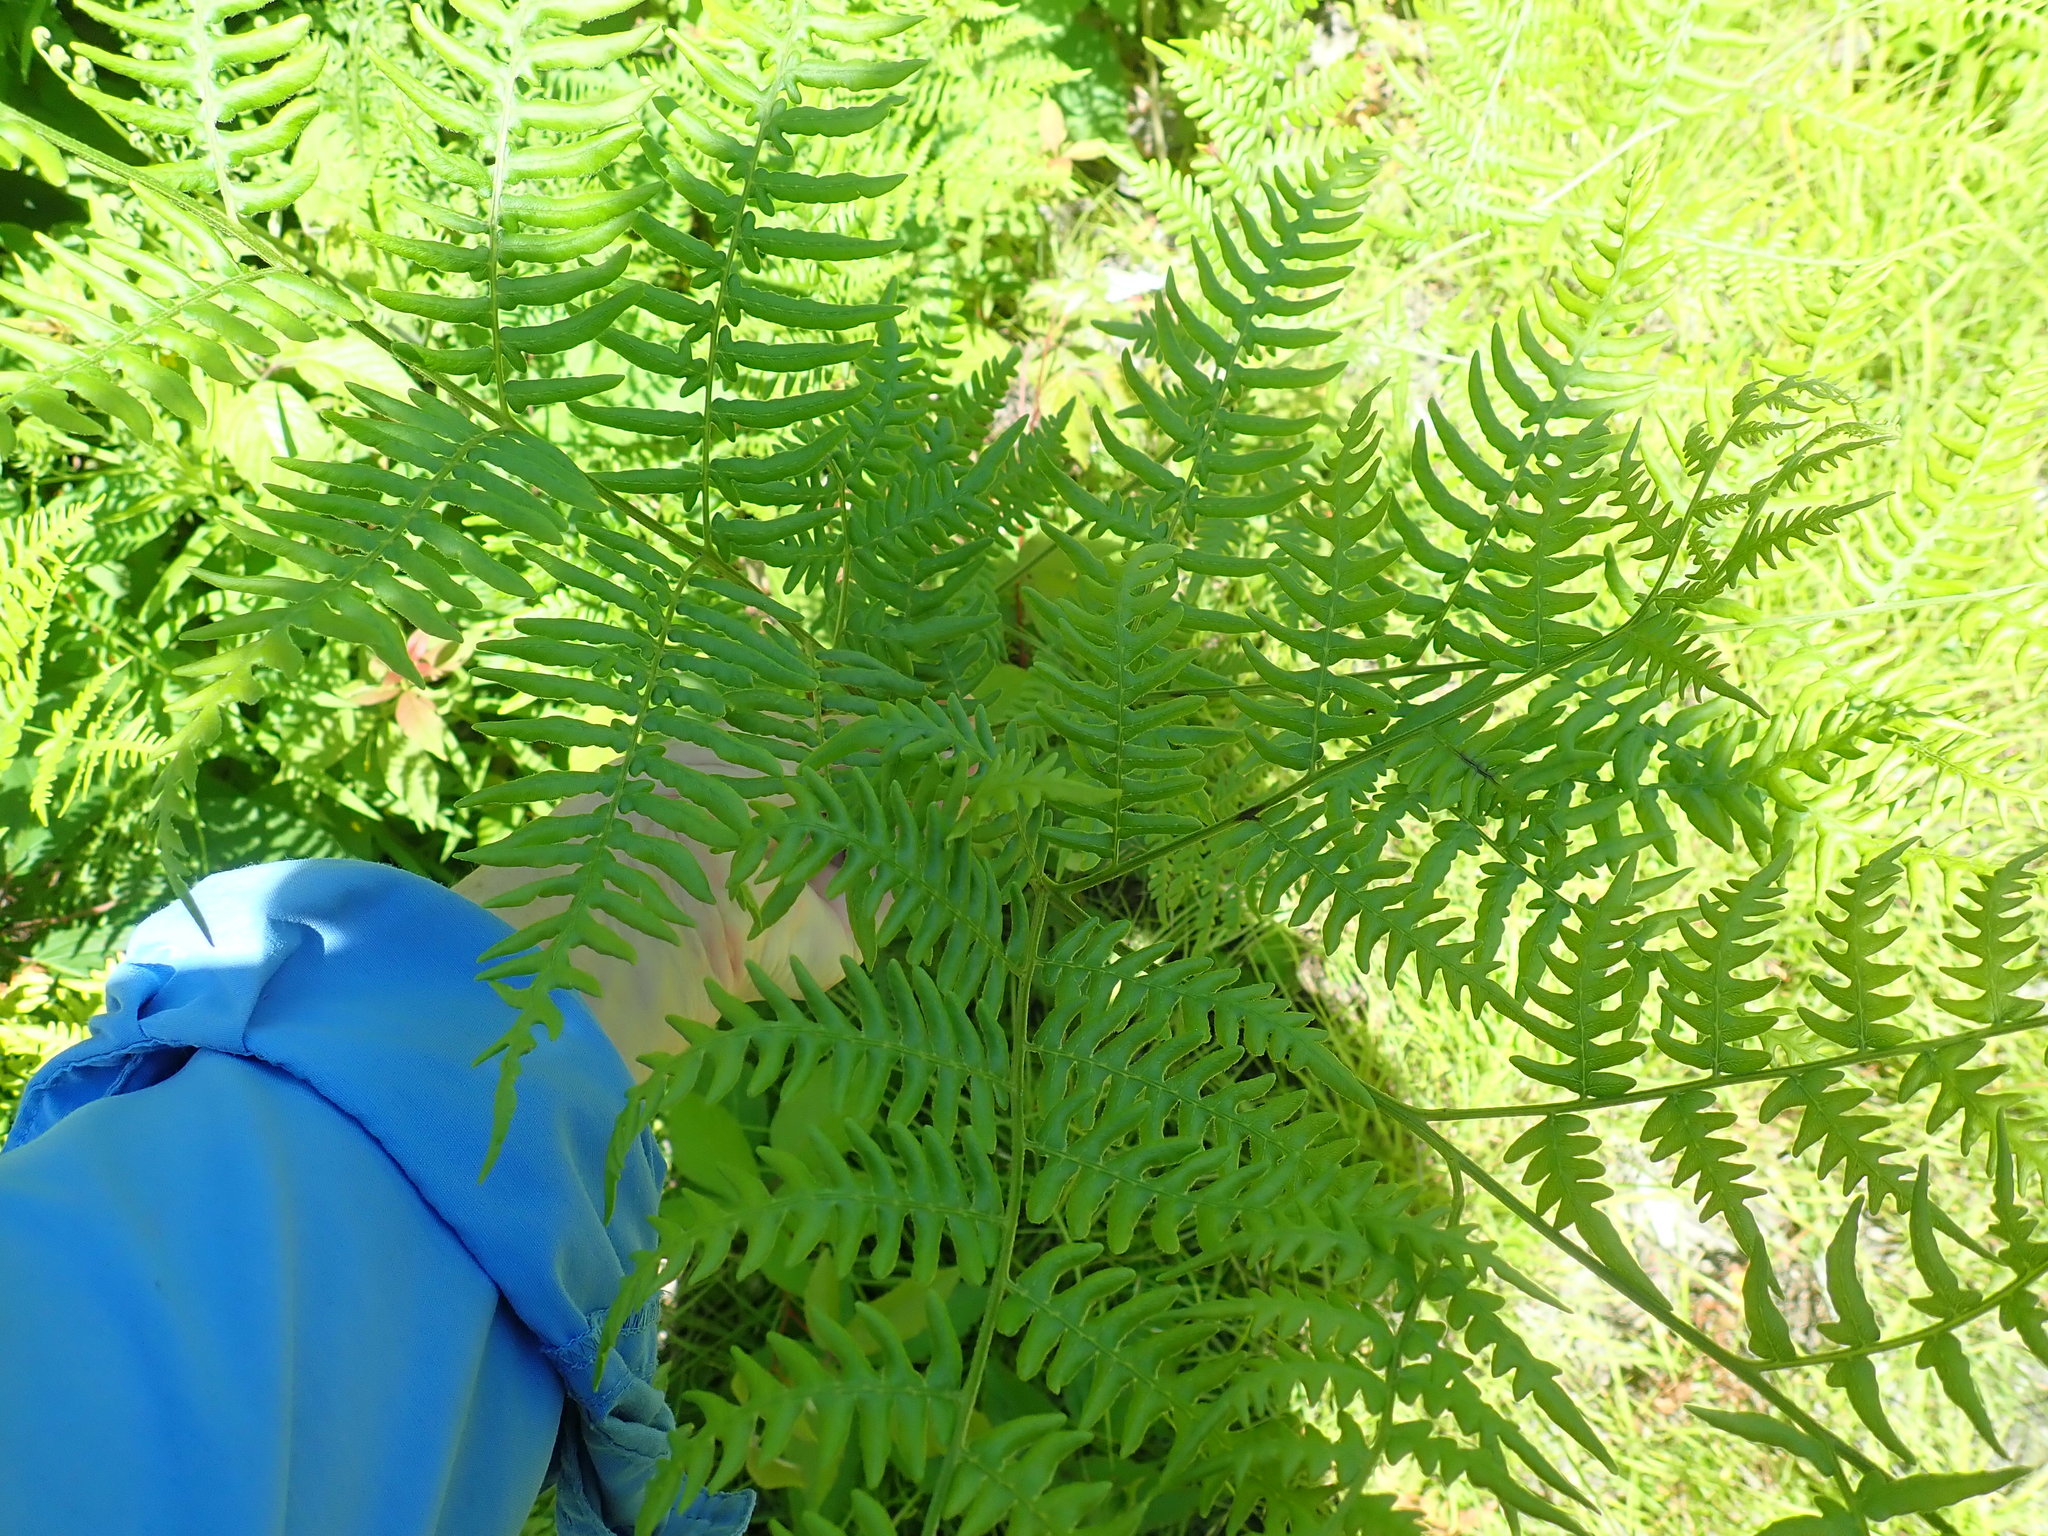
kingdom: Plantae
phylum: Tracheophyta
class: Polypodiopsida
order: Polypodiales
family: Dennstaedtiaceae
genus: Pteridium
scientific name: Pteridium aquilinum
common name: Bracken
